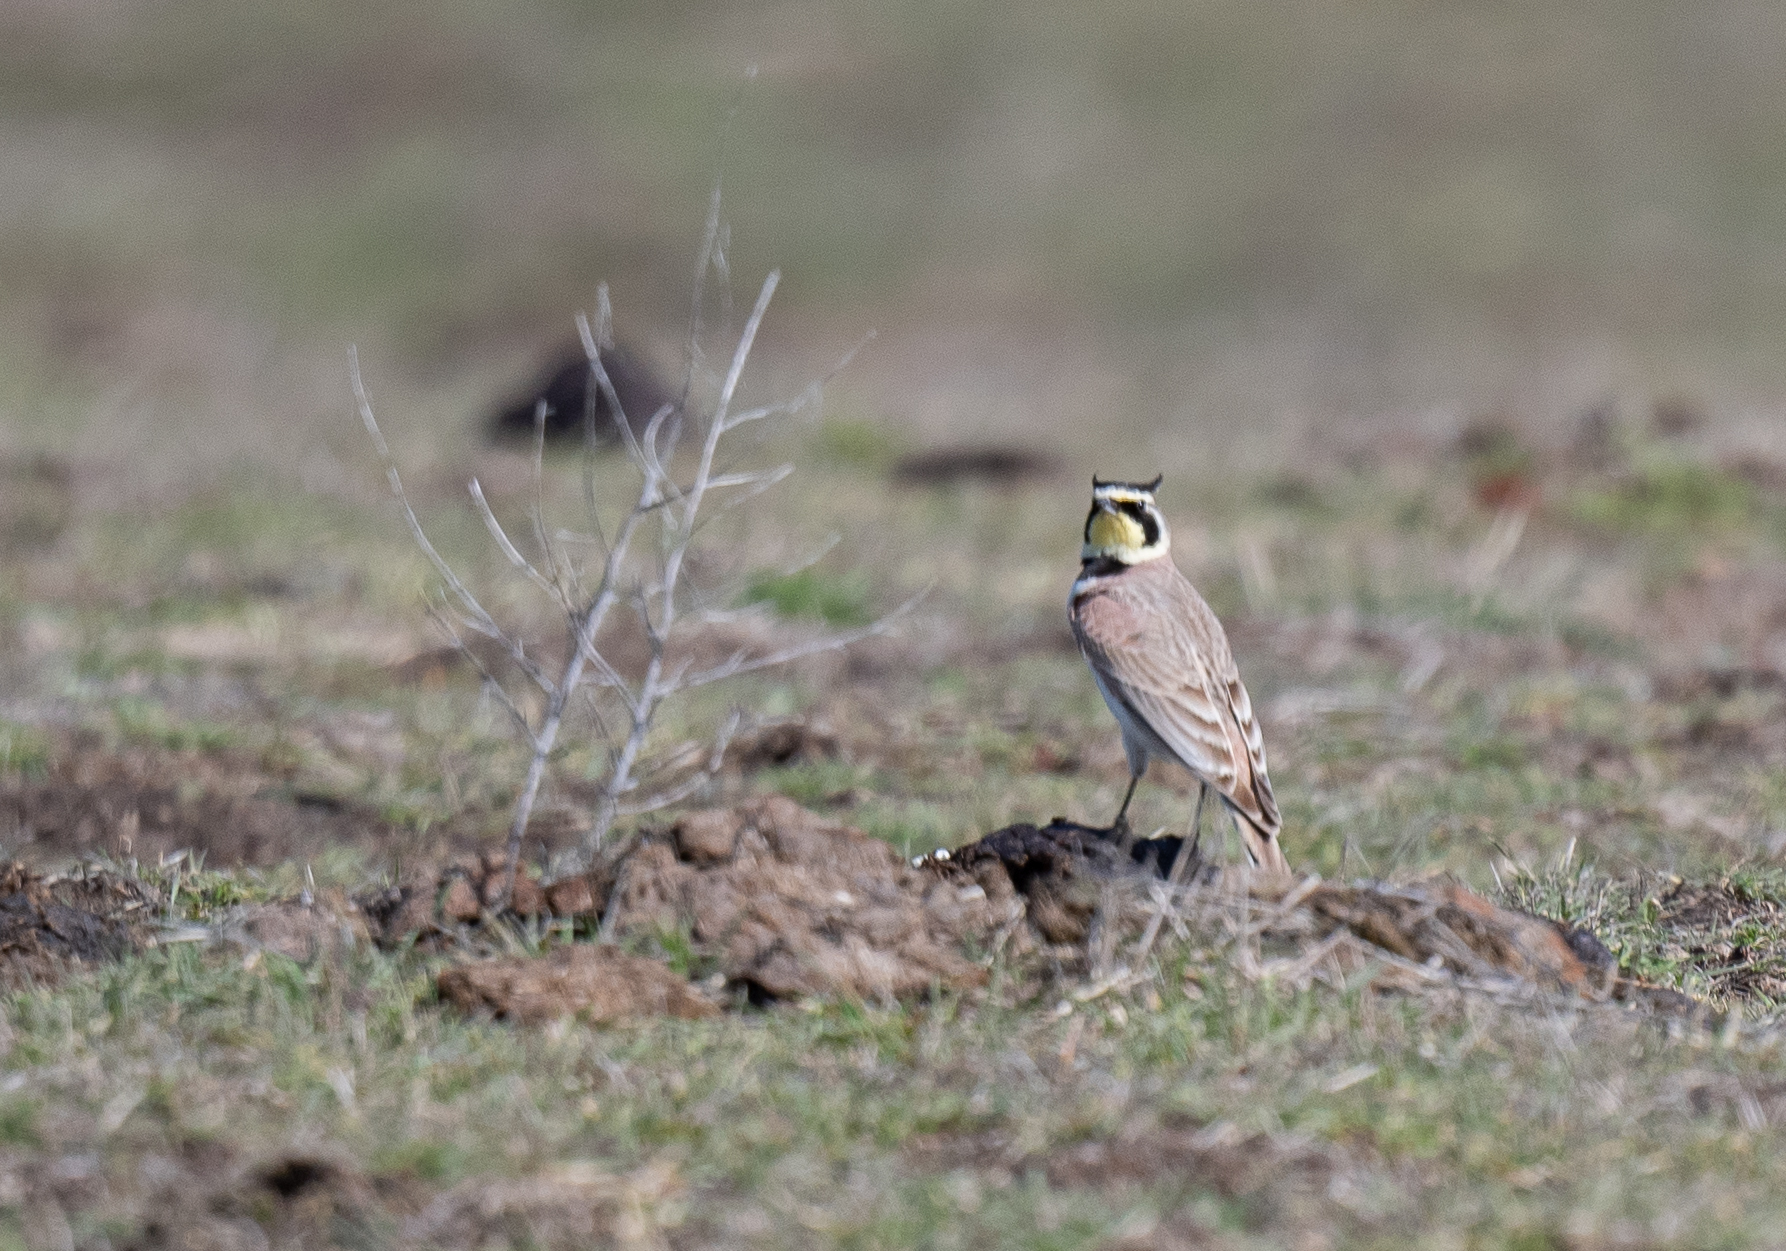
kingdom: Animalia
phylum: Chordata
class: Aves
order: Passeriformes
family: Alaudidae
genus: Eremophila
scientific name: Eremophila alpestris
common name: Horned lark
